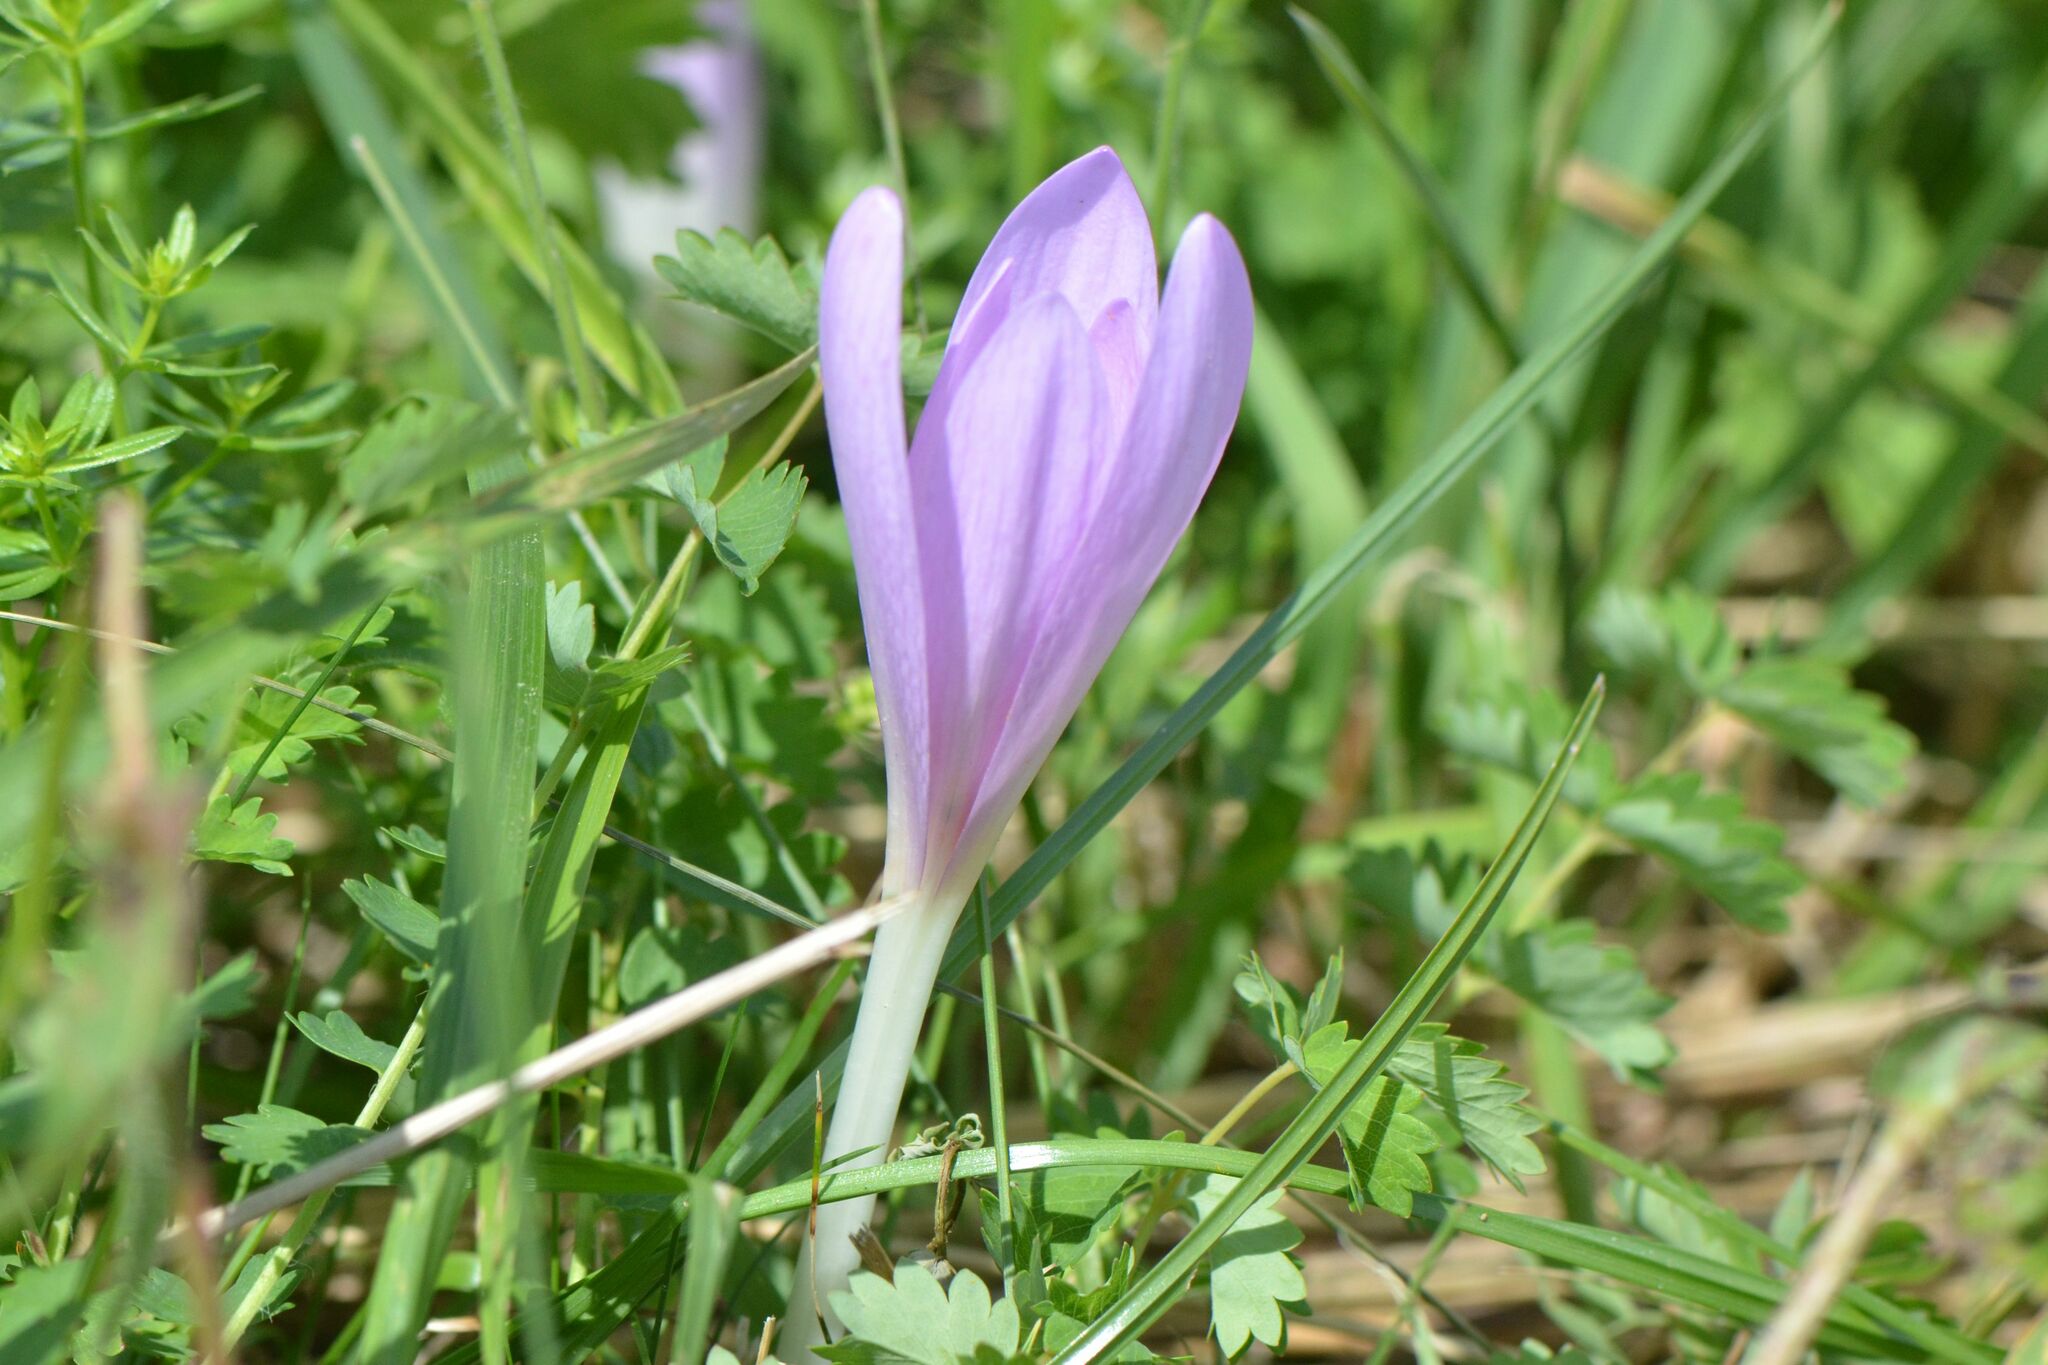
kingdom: Plantae
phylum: Tracheophyta
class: Liliopsida
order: Liliales
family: Colchicaceae
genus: Colchicum
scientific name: Colchicum autumnale
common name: Autumn crocus
